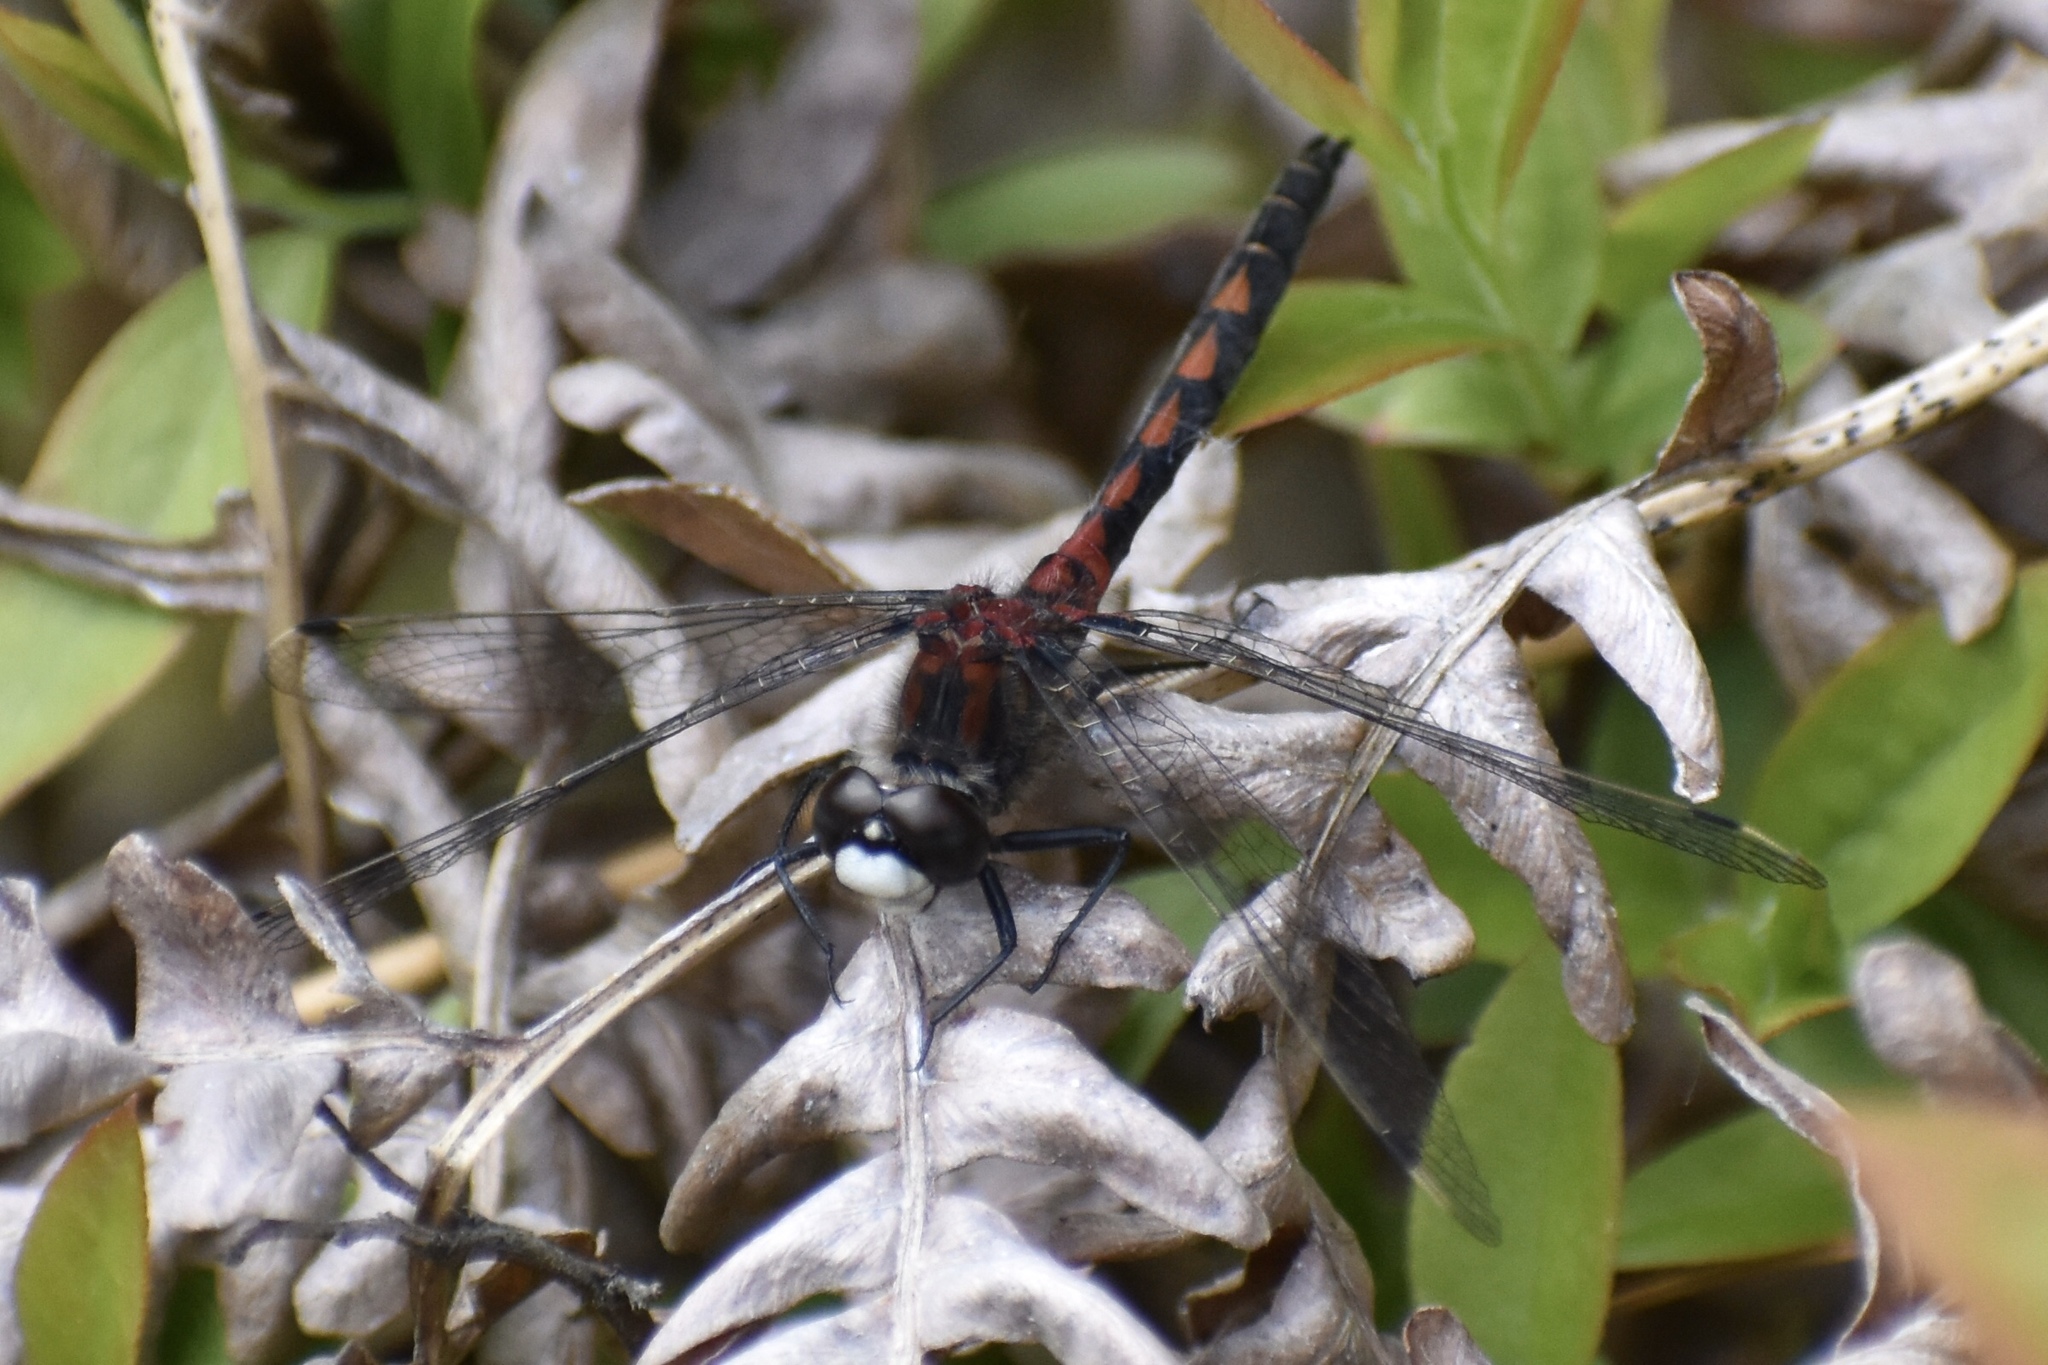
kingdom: Animalia
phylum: Arthropoda
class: Insecta
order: Odonata
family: Libellulidae
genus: Leucorrhinia
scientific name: Leucorrhinia hudsonica
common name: Hudsonian whiteface
